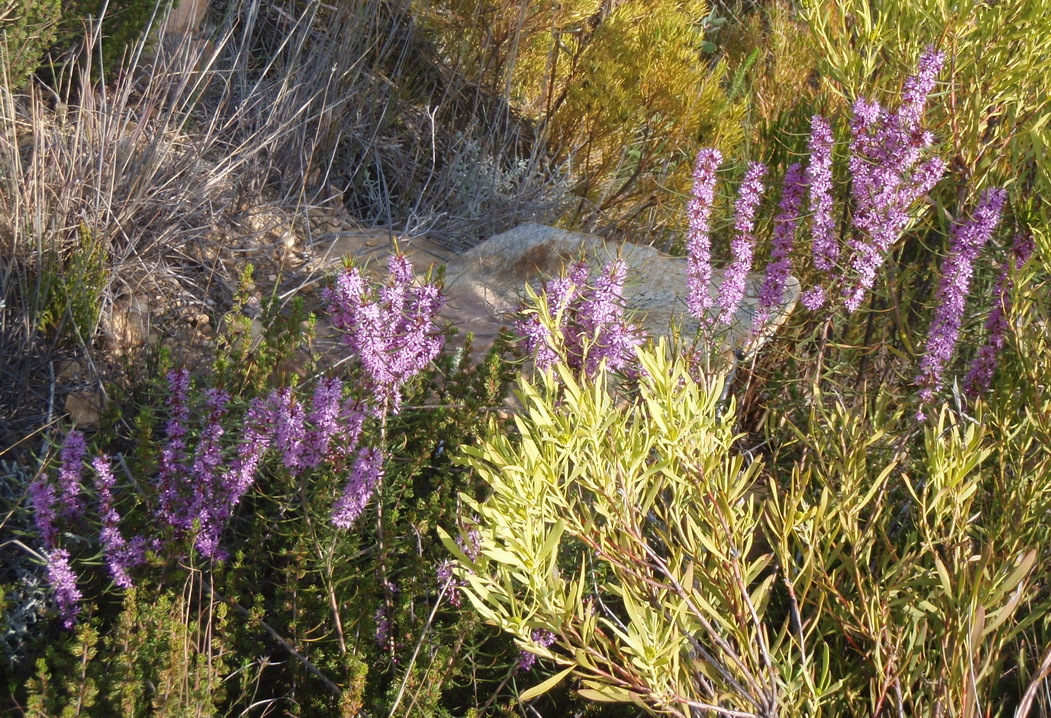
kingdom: Plantae
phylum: Tracheophyta
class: Magnoliopsida
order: Sapindales
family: Rutaceae
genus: Agathosma
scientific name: Agathosma pungens
